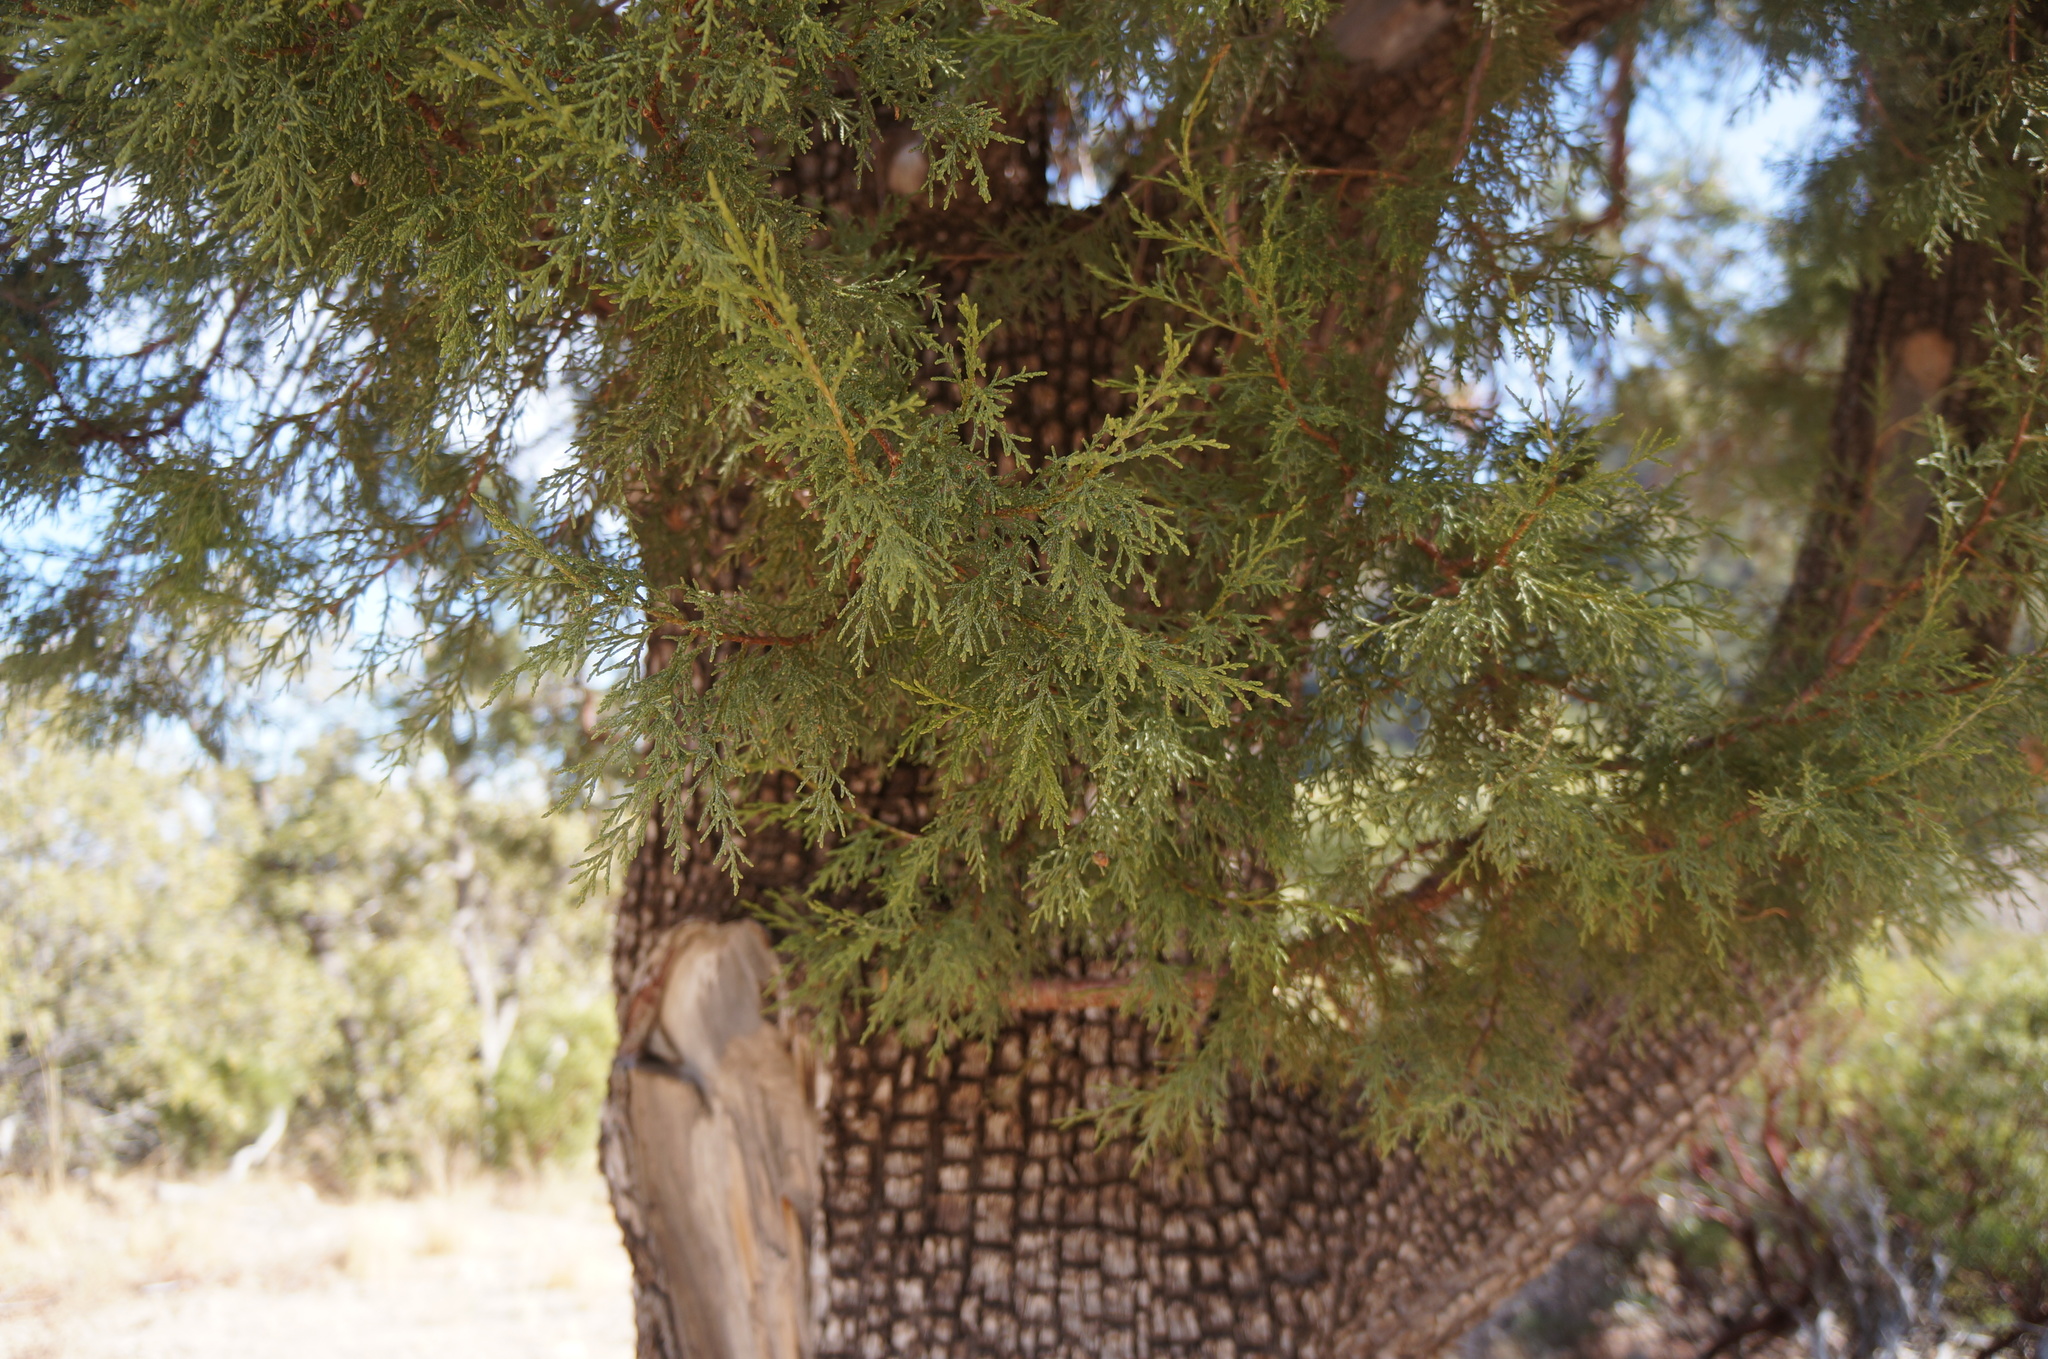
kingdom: Plantae
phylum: Tracheophyta
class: Pinopsida
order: Pinales
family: Cupressaceae
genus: Juniperus
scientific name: Juniperus deppeana
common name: Alligator juniper
